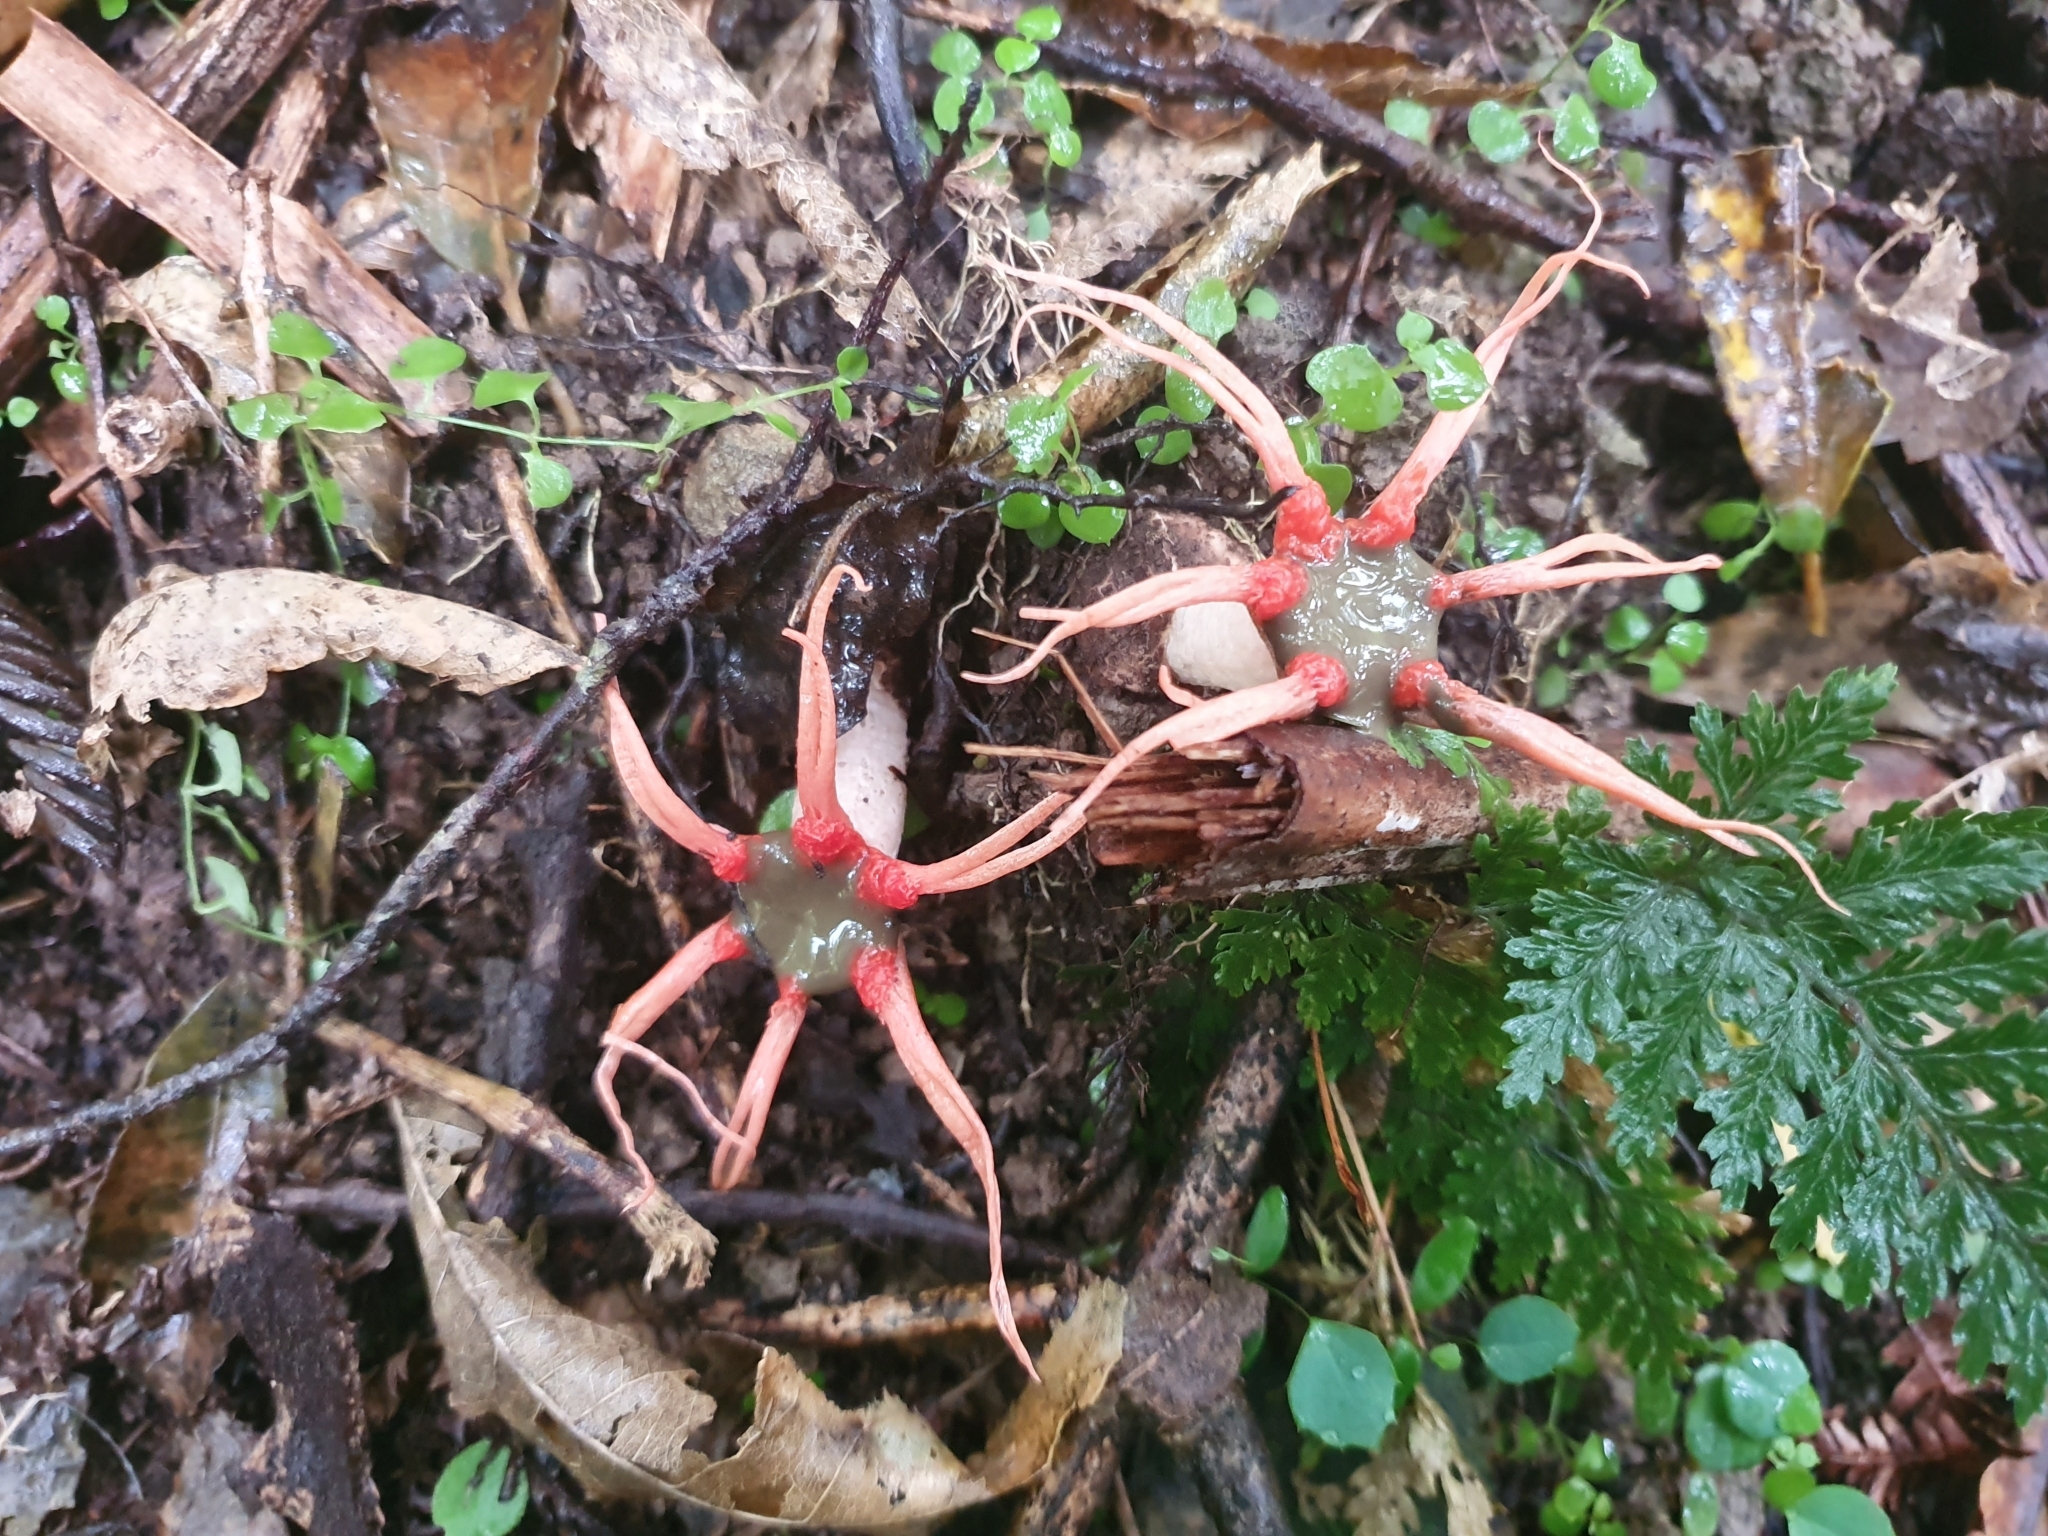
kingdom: Fungi
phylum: Basidiomycota
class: Agaricomycetes
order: Phallales
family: Phallaceae
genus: Aseroe
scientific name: Aseroe rubra
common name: Starfish fungus
